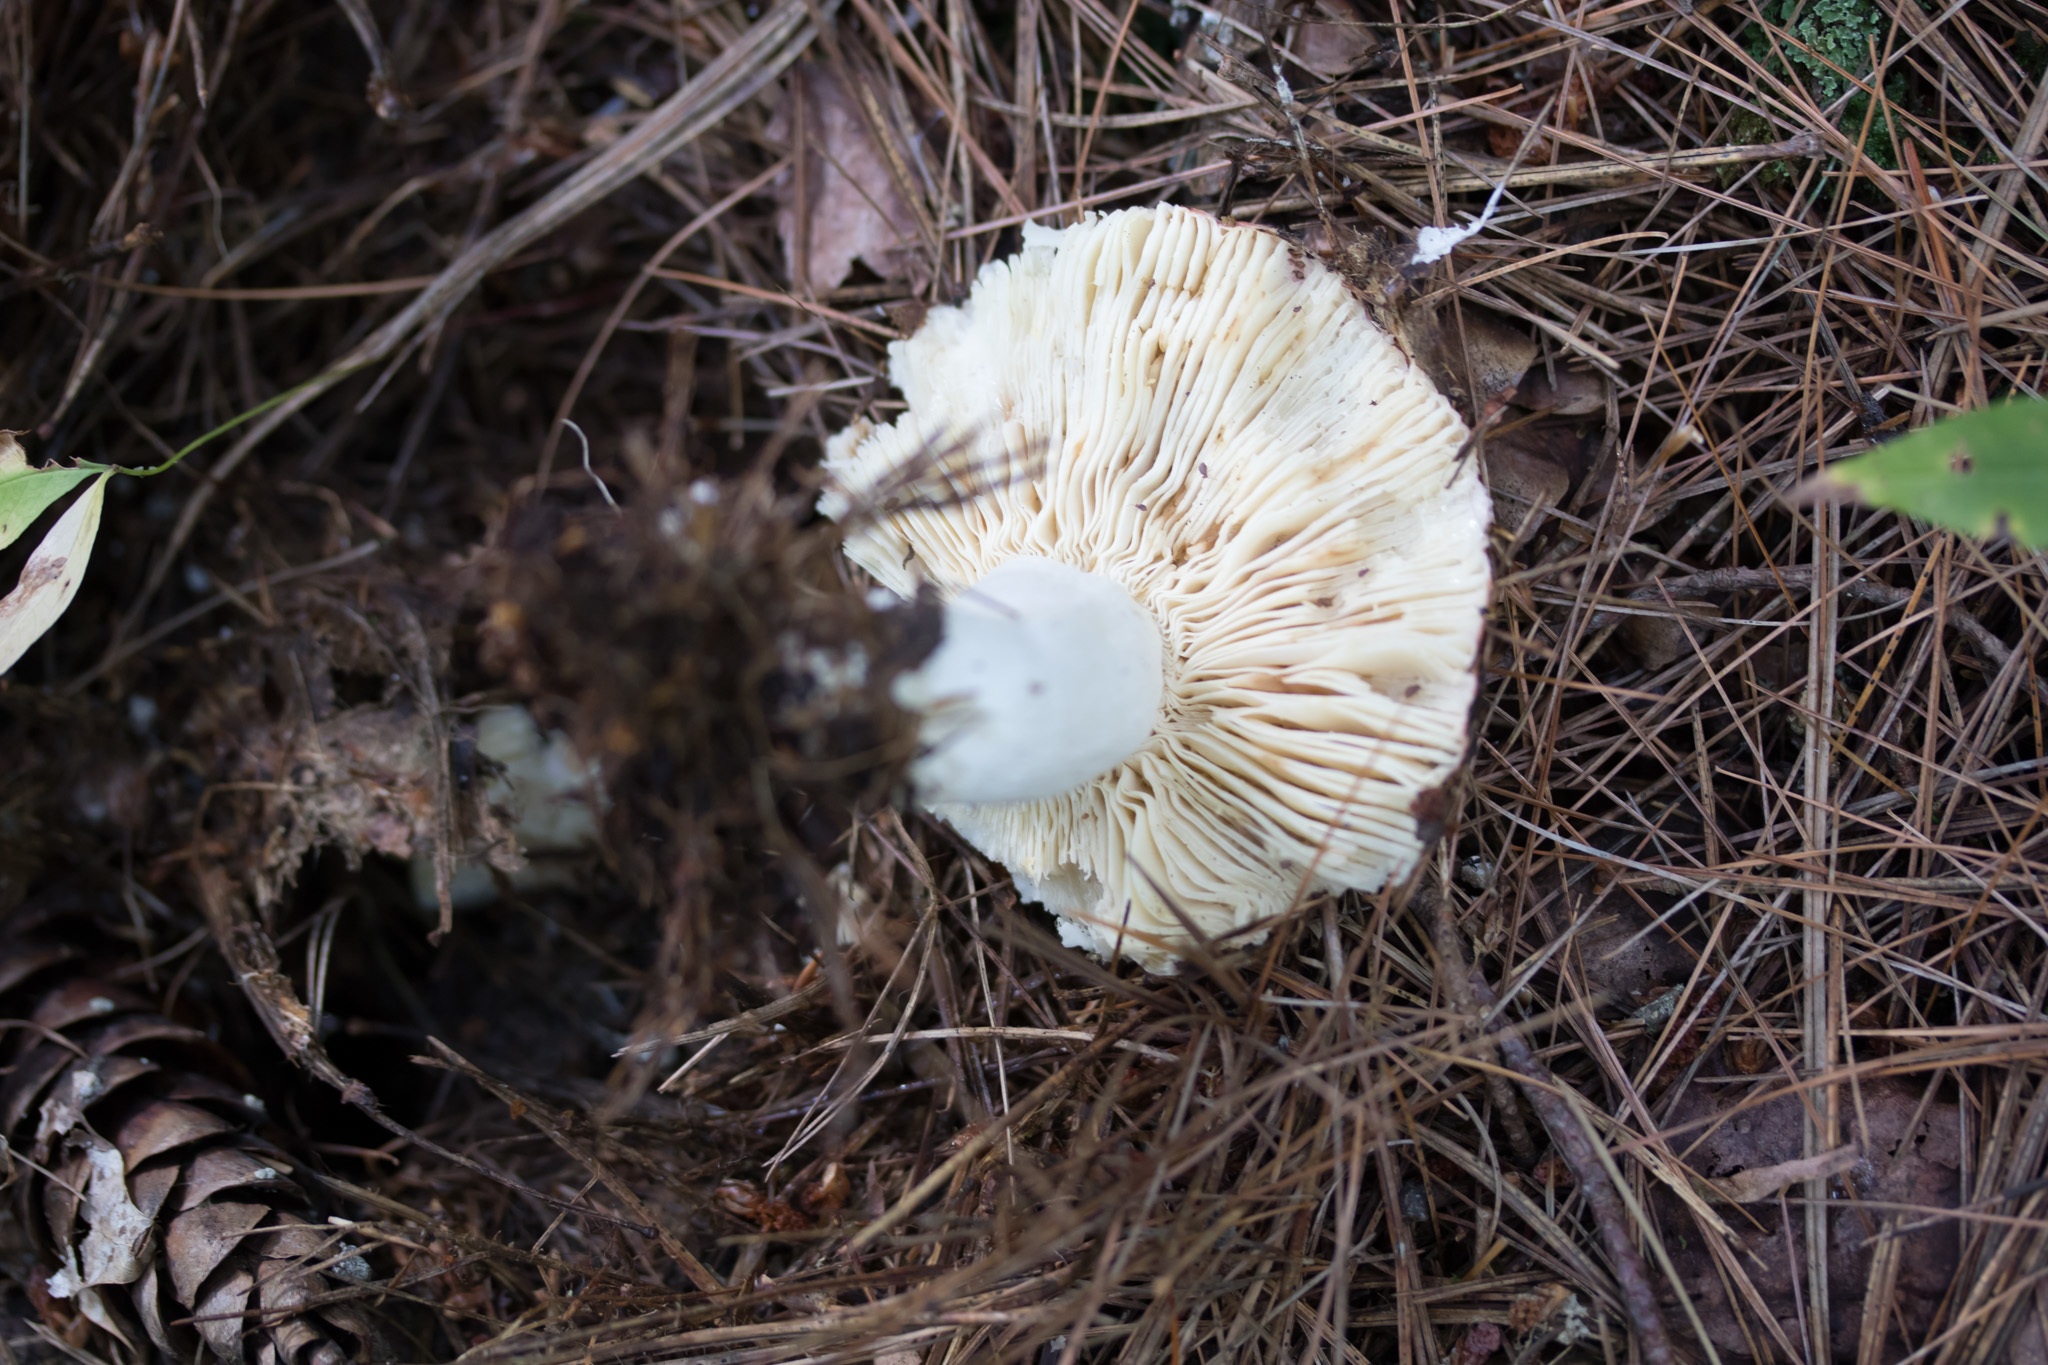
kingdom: Fungi
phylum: Basidiomycota
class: Agaricomycetes
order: Russulales
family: Russulaceae
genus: Russula
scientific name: Russula
